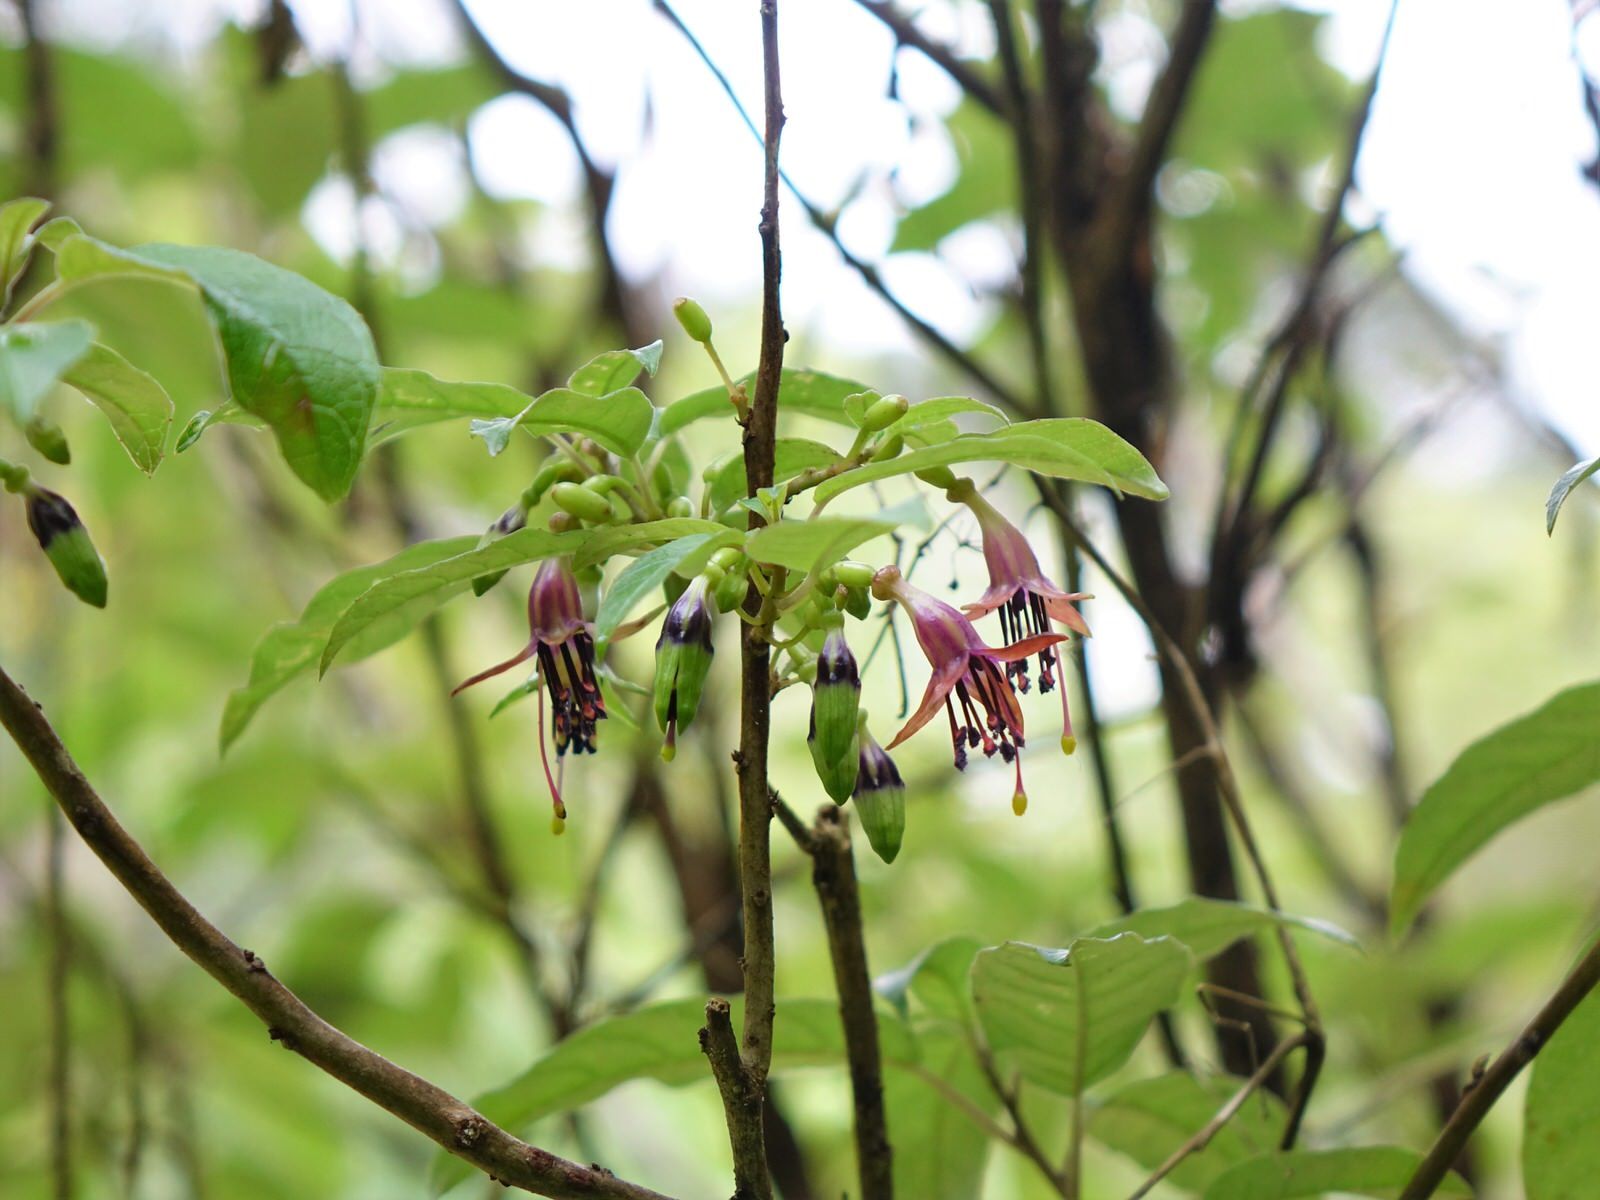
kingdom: Plantae
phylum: Tracheophyta
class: Magnoliopsida
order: Myrtales
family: Onagraceae
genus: Fuchsia
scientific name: Fuchsia excorticata
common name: Tree fuchsia
